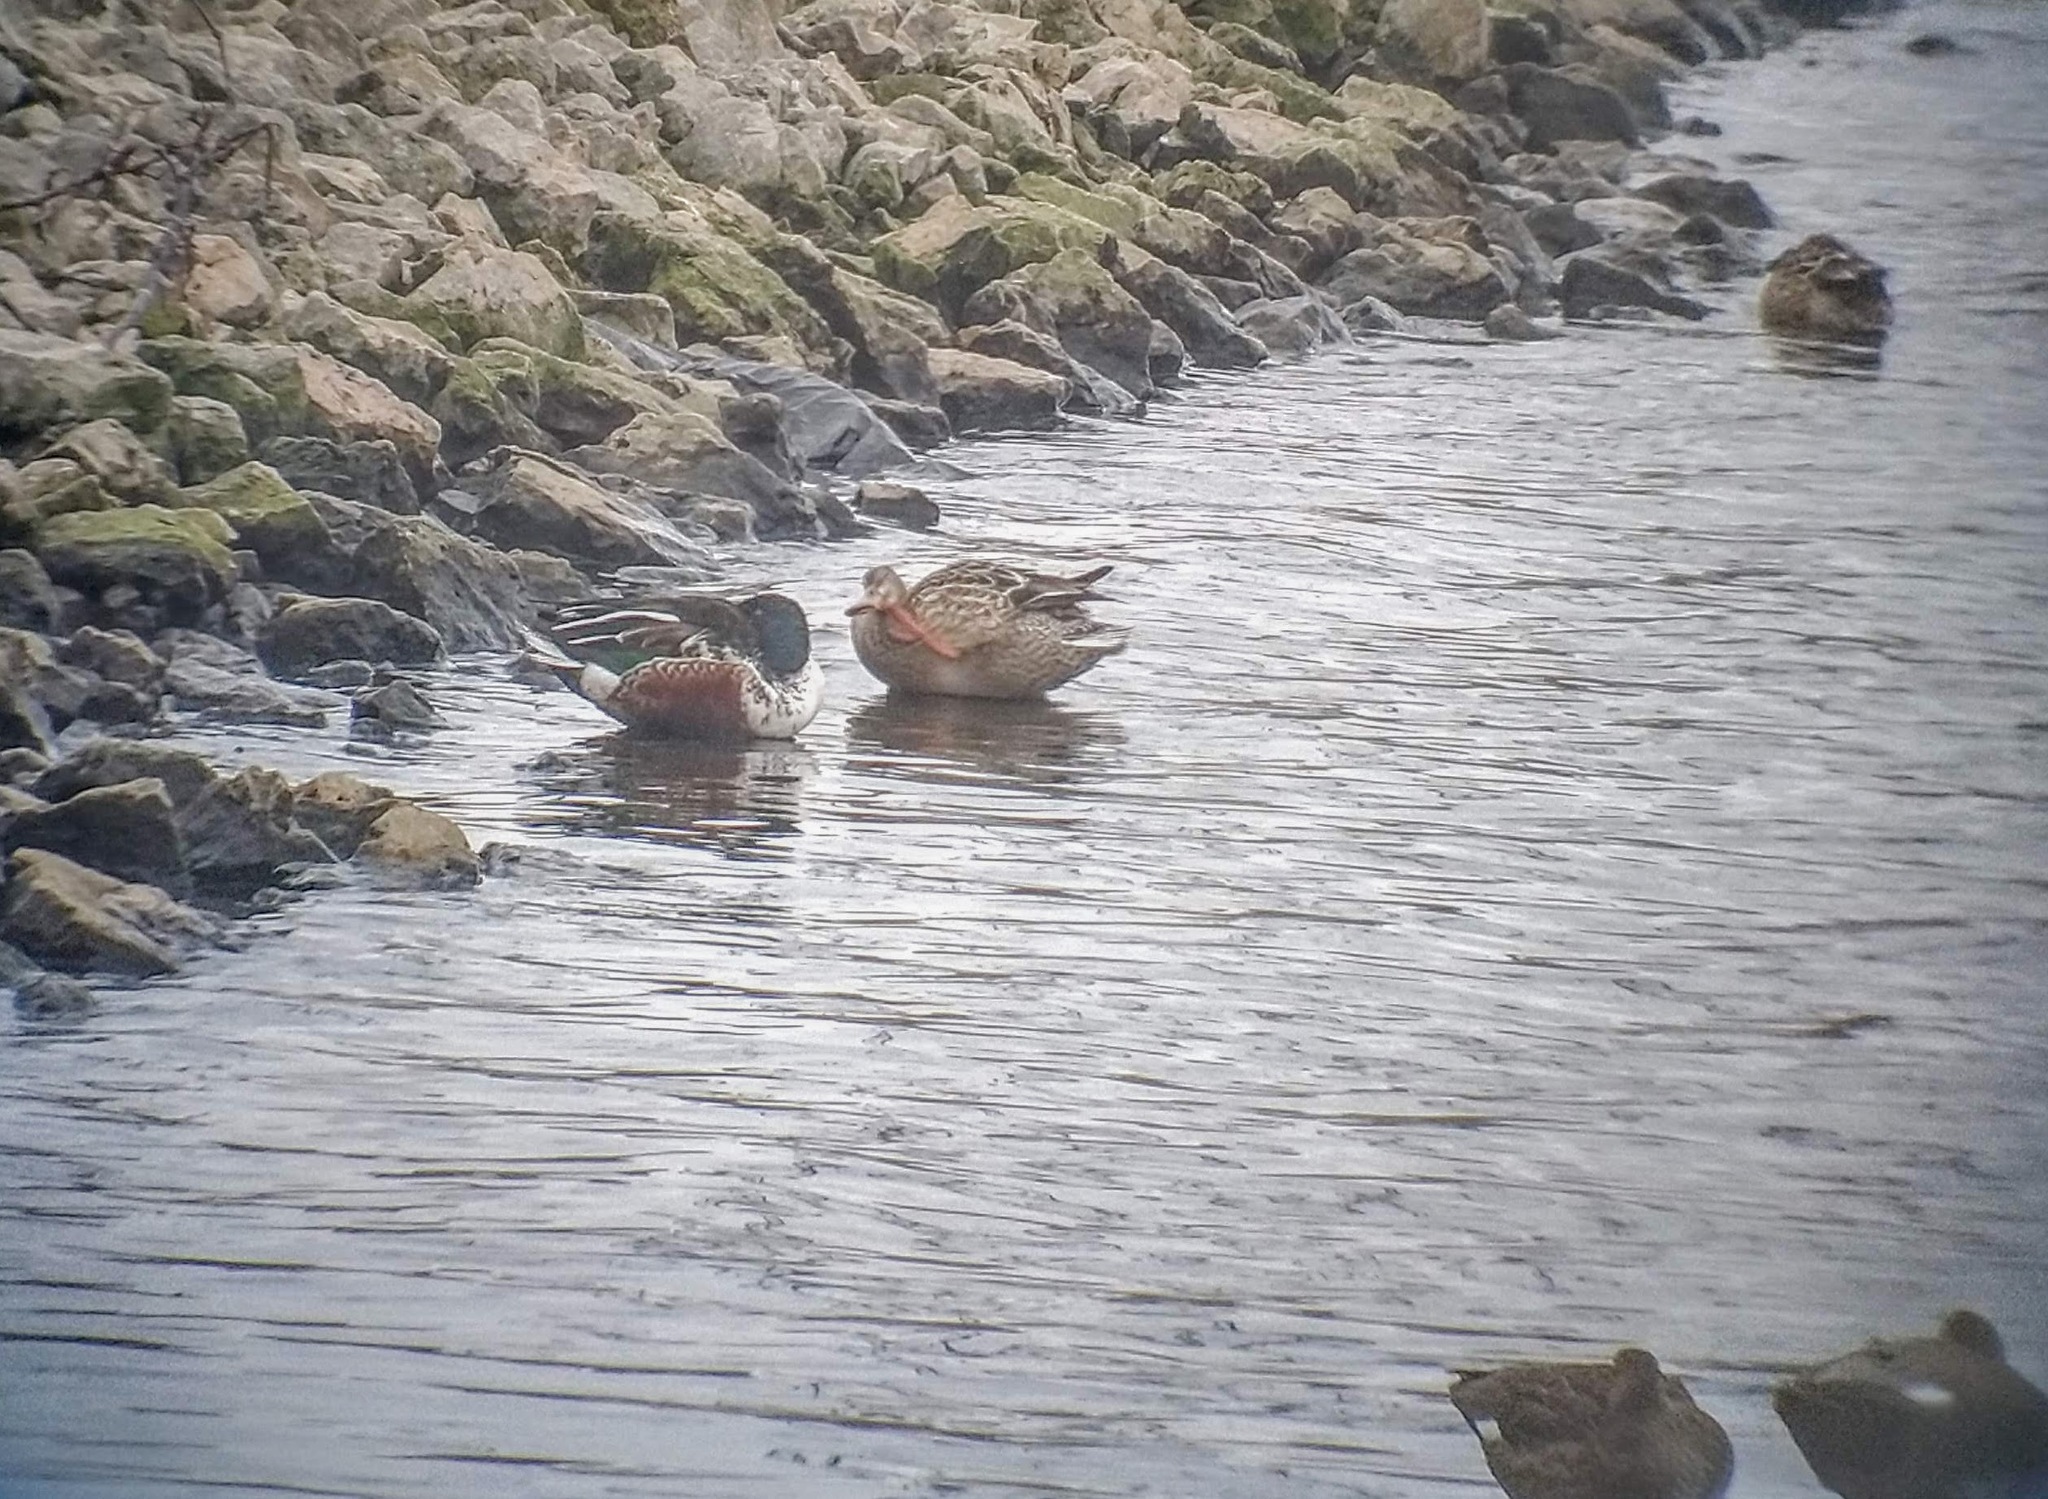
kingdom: Animalia
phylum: Chordata
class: Aves
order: Anseriformes
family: Anatidae
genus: Spatula
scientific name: Spatula clypeata
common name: Northern shoveler
